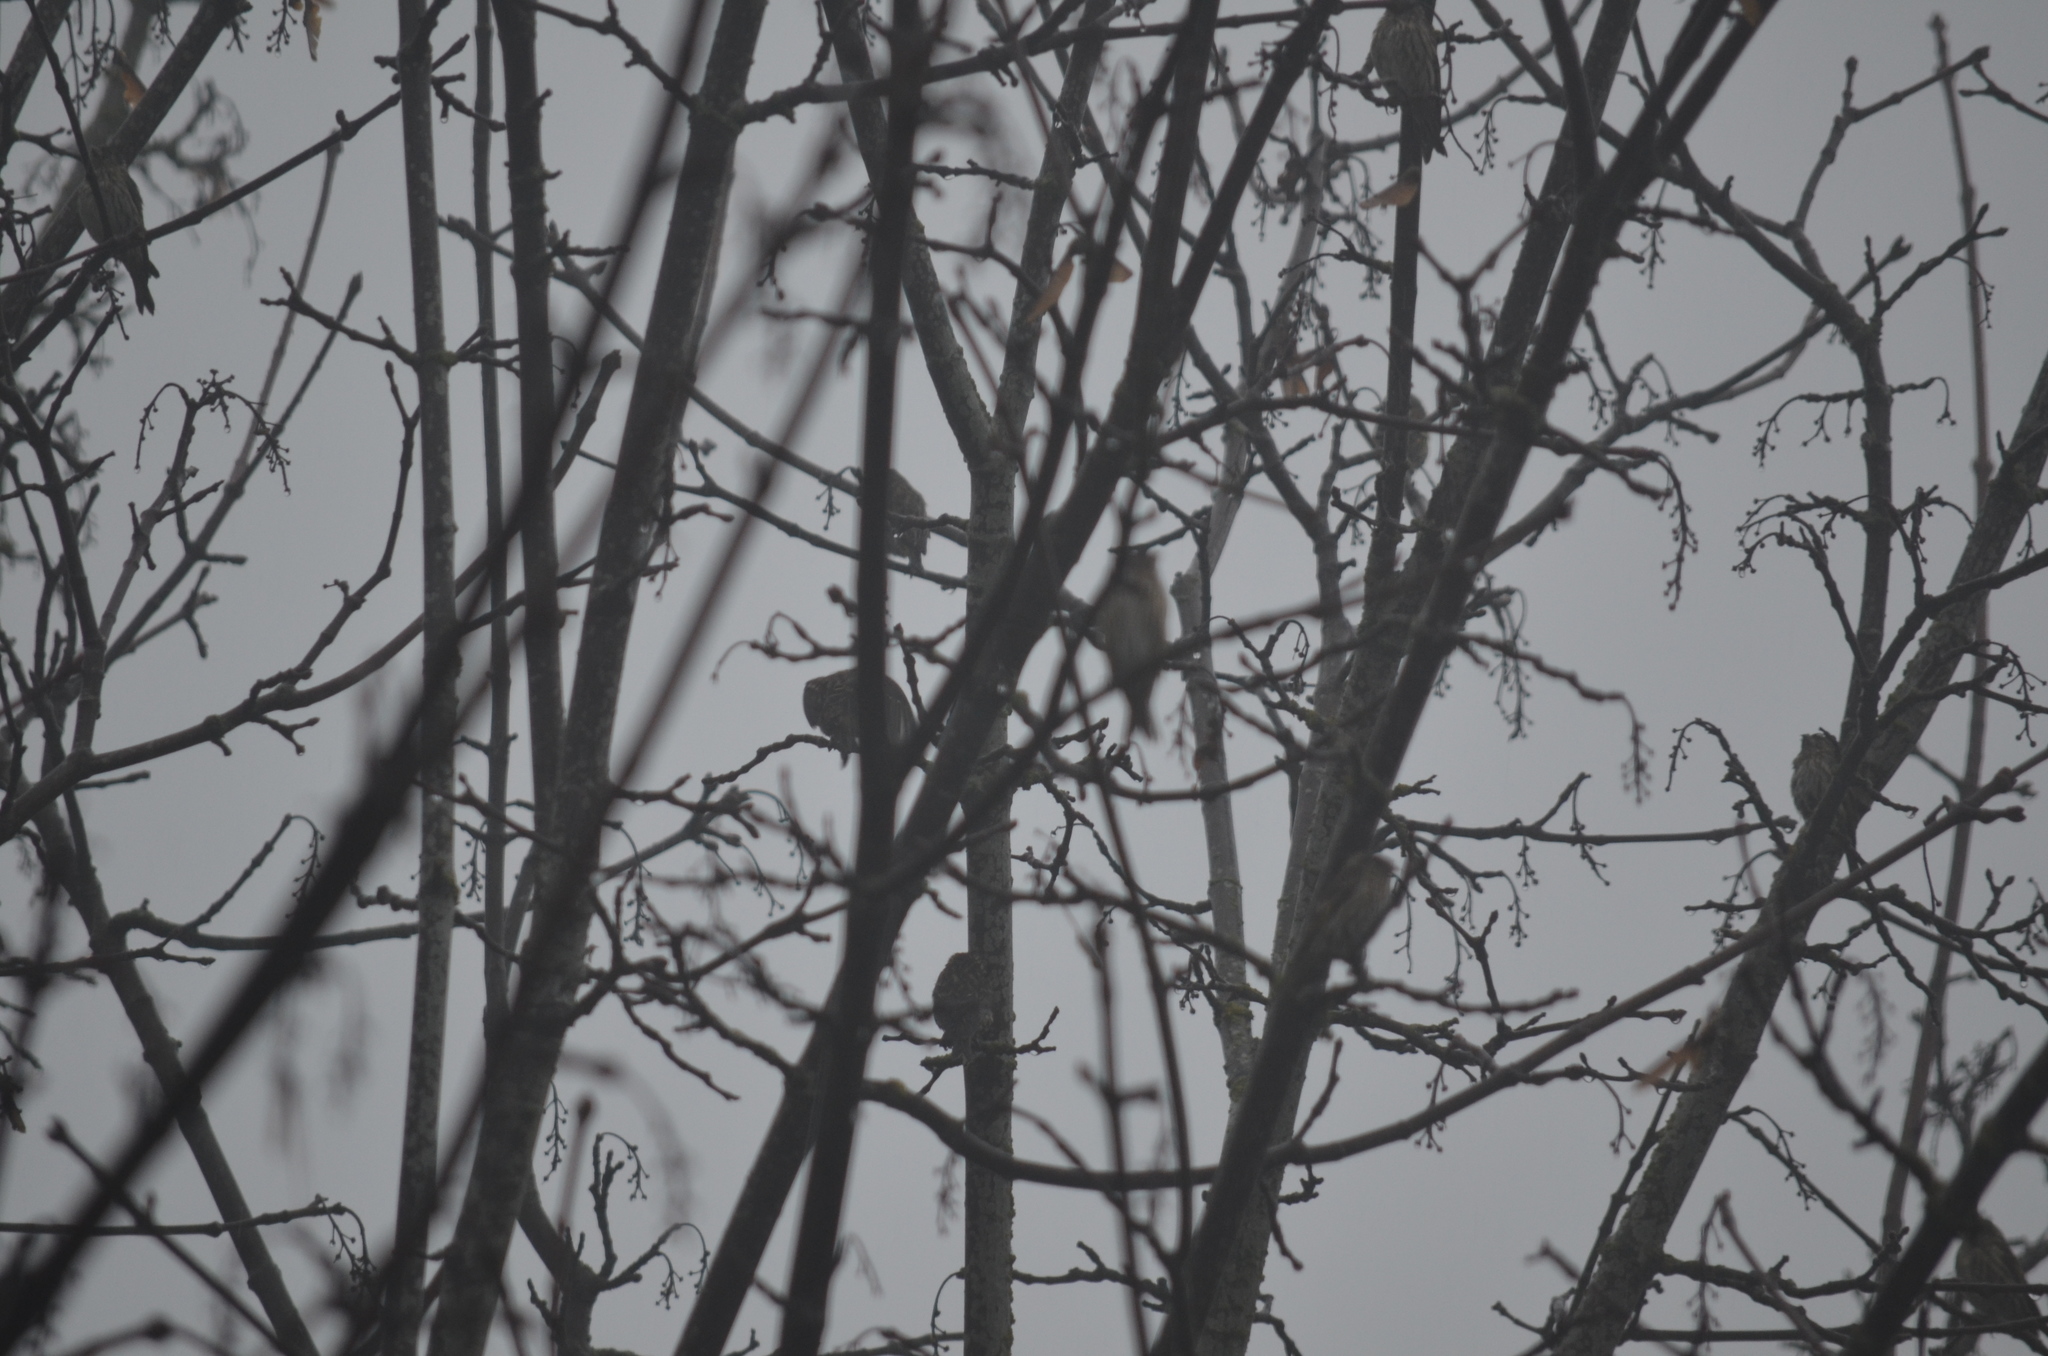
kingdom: Animalia
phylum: Chordata
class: Aves
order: Passeriformes
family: Fringillidae
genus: Spinus
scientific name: Spinus pinus
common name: Pine siskin
